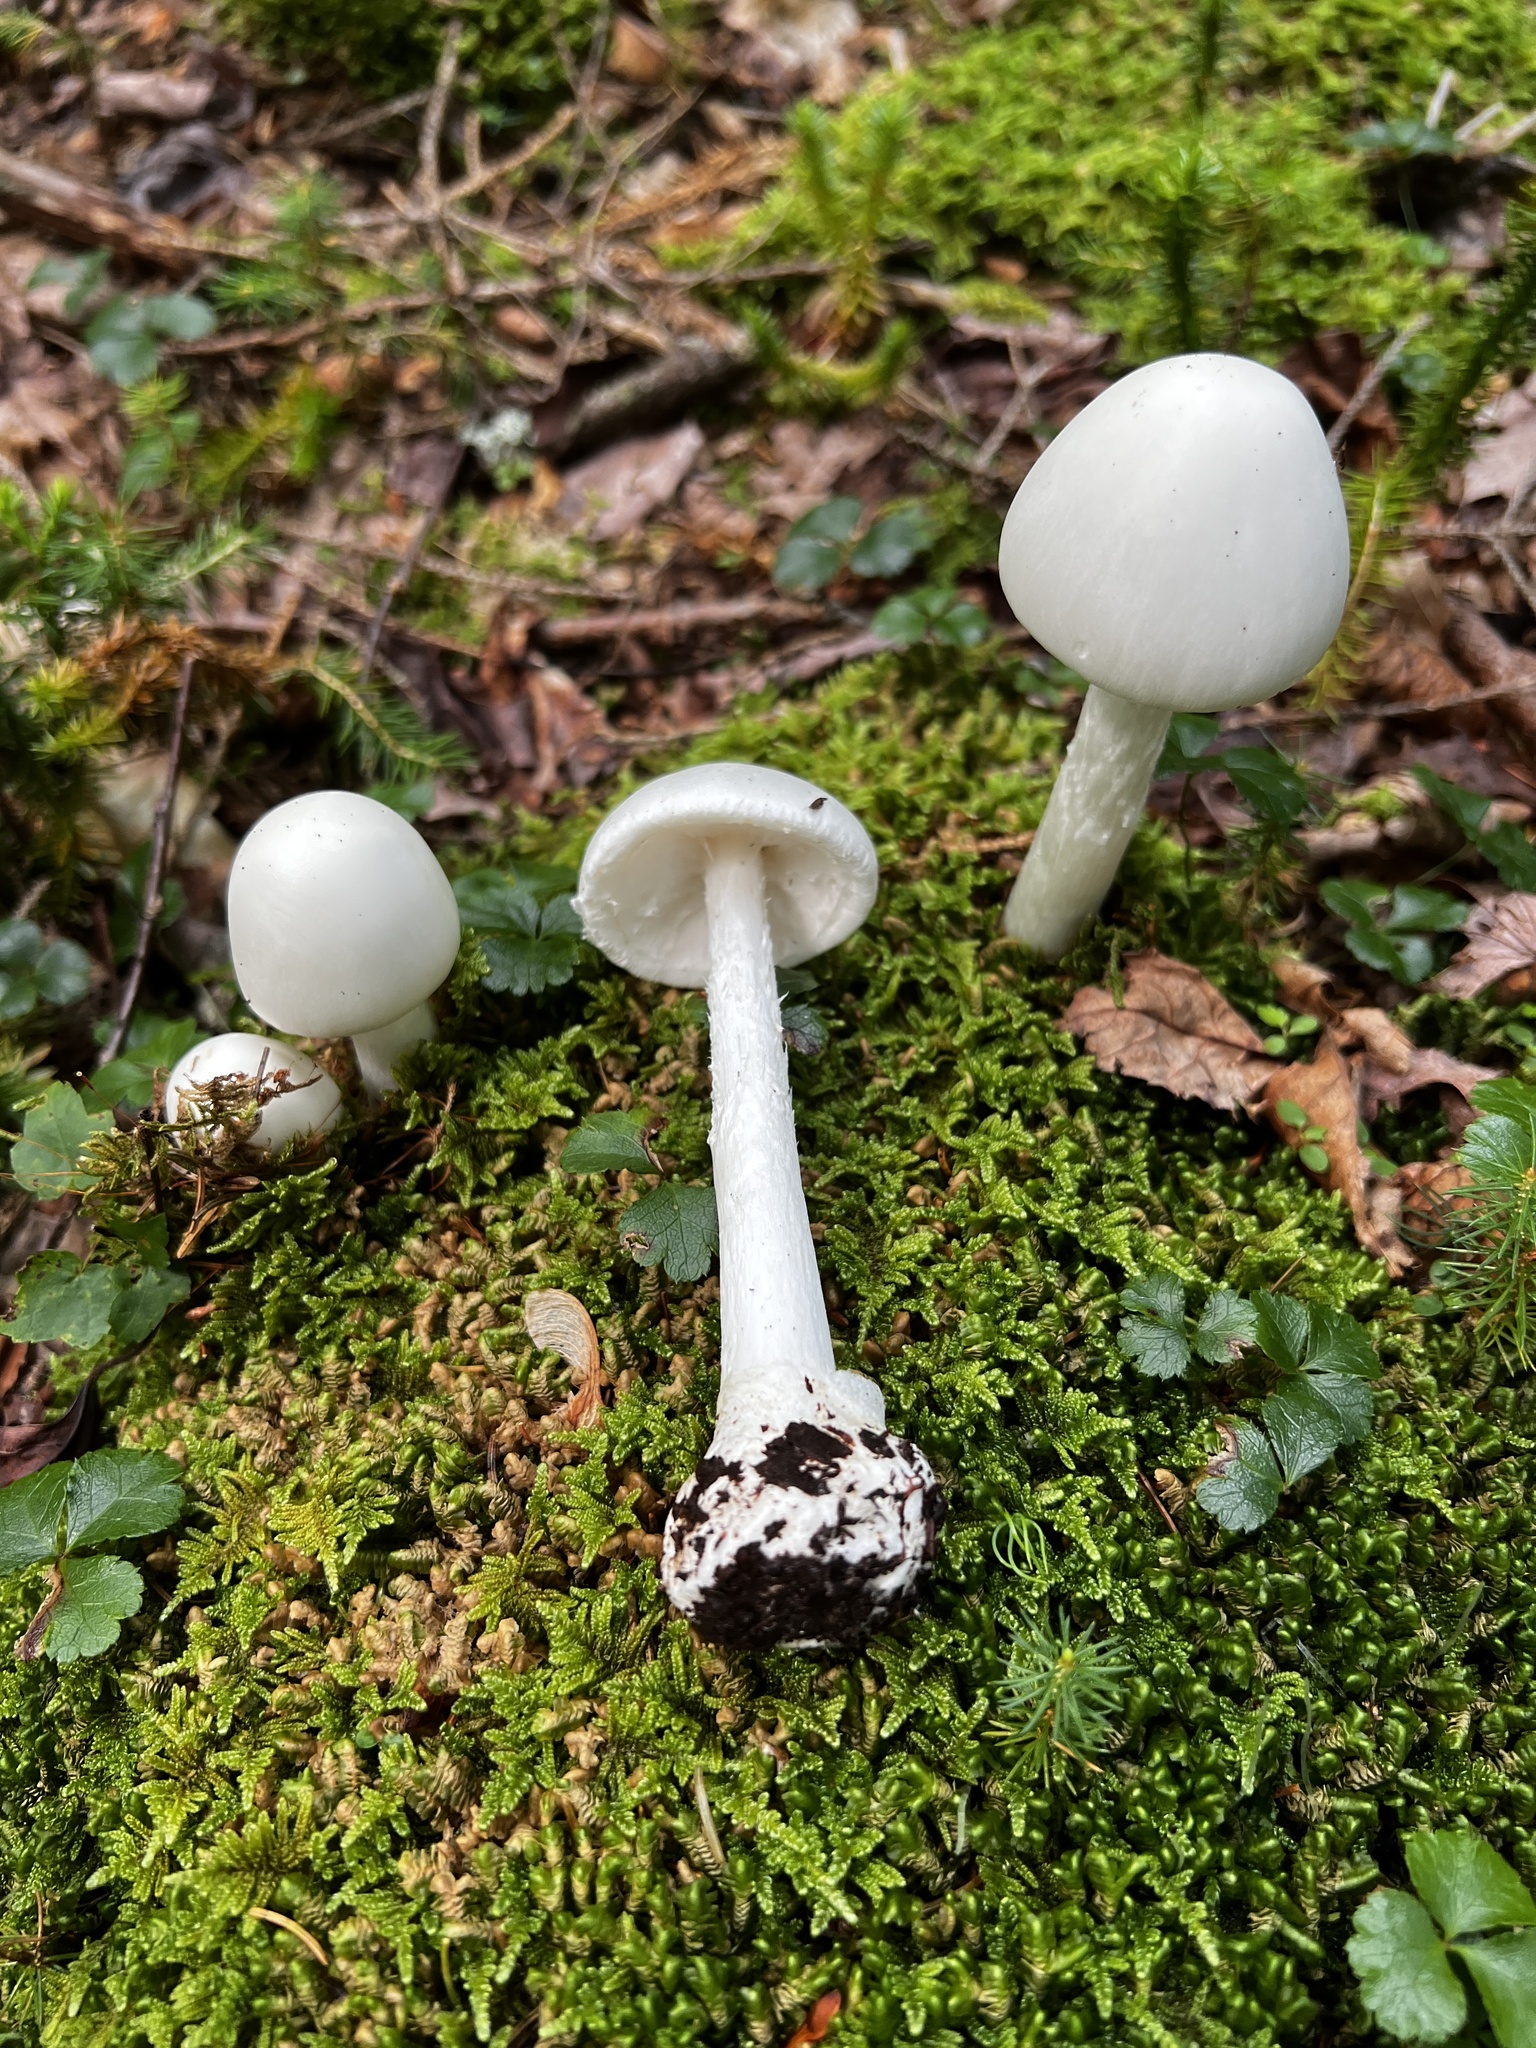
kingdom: Fungi
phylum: Basidiomycota
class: Agaricomycetes
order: Agaricales
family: Amanitaceae
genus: Amanita
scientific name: Amanita bisporigera
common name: Eastern north american destroying angel
